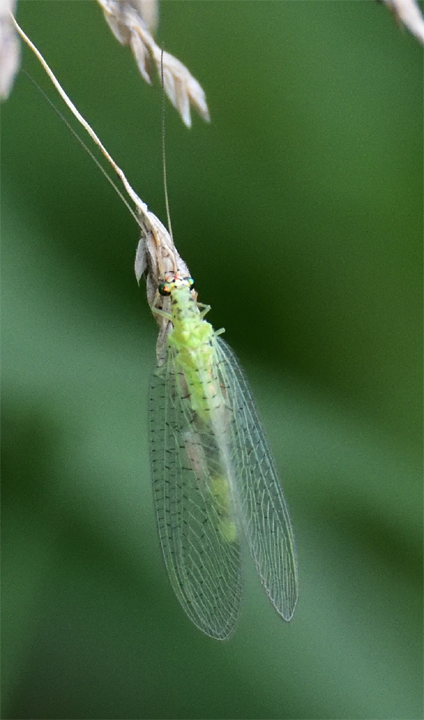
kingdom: Animalia
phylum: Arthropoda
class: Insecta
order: Neuroptera
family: Chrysopidae
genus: Chrysopa
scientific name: Chrysopa oculata
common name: Golden-eyed lacewing
